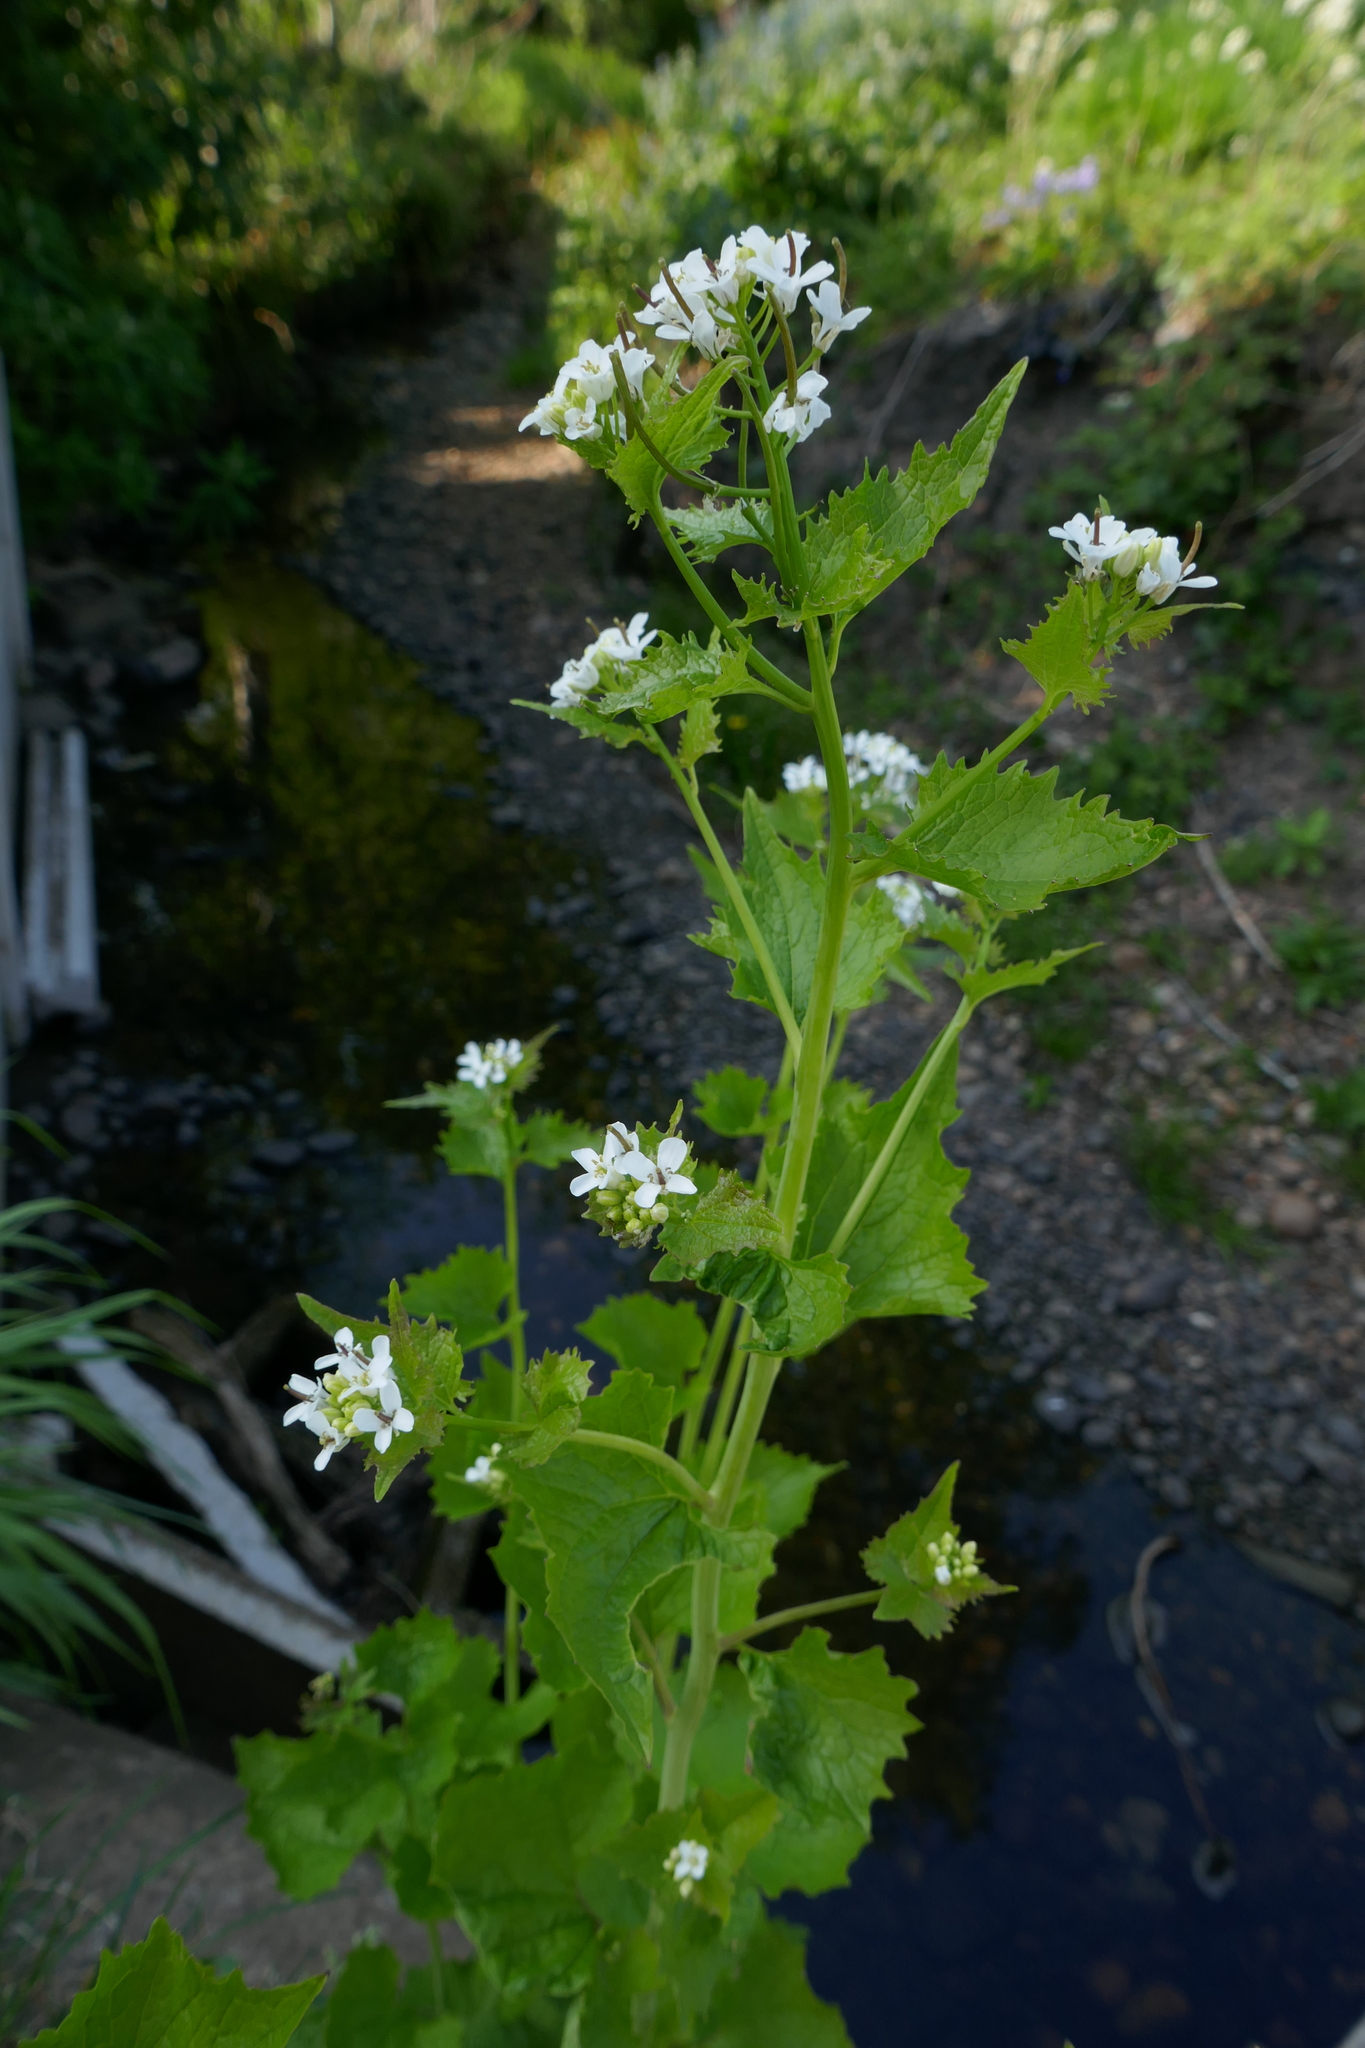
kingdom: Plantae
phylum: Tracheophyta
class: Magnoliopsida
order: Brassicales
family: Brassicaceae
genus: Alliaria
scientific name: Alliaria petiolata
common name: Garlic mustard
